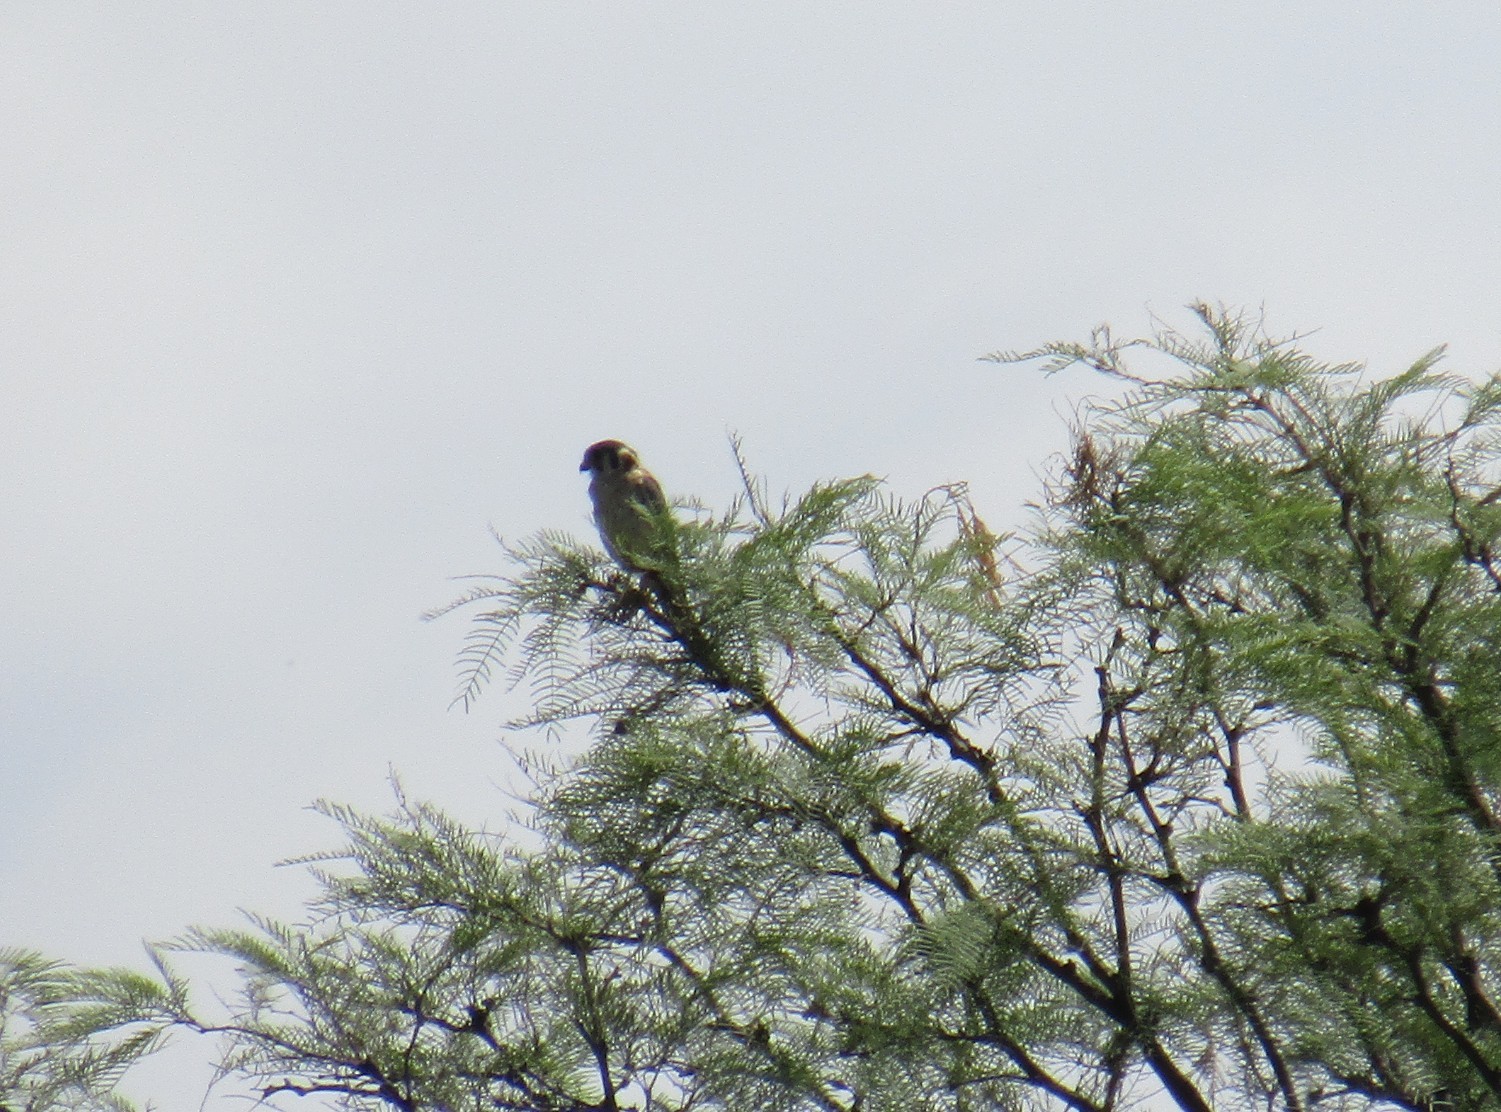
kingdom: Animalia
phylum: Chordata
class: Aves
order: Falconiformes
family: Falconidae
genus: Falco
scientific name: Falco sparverius
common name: American kestrel
